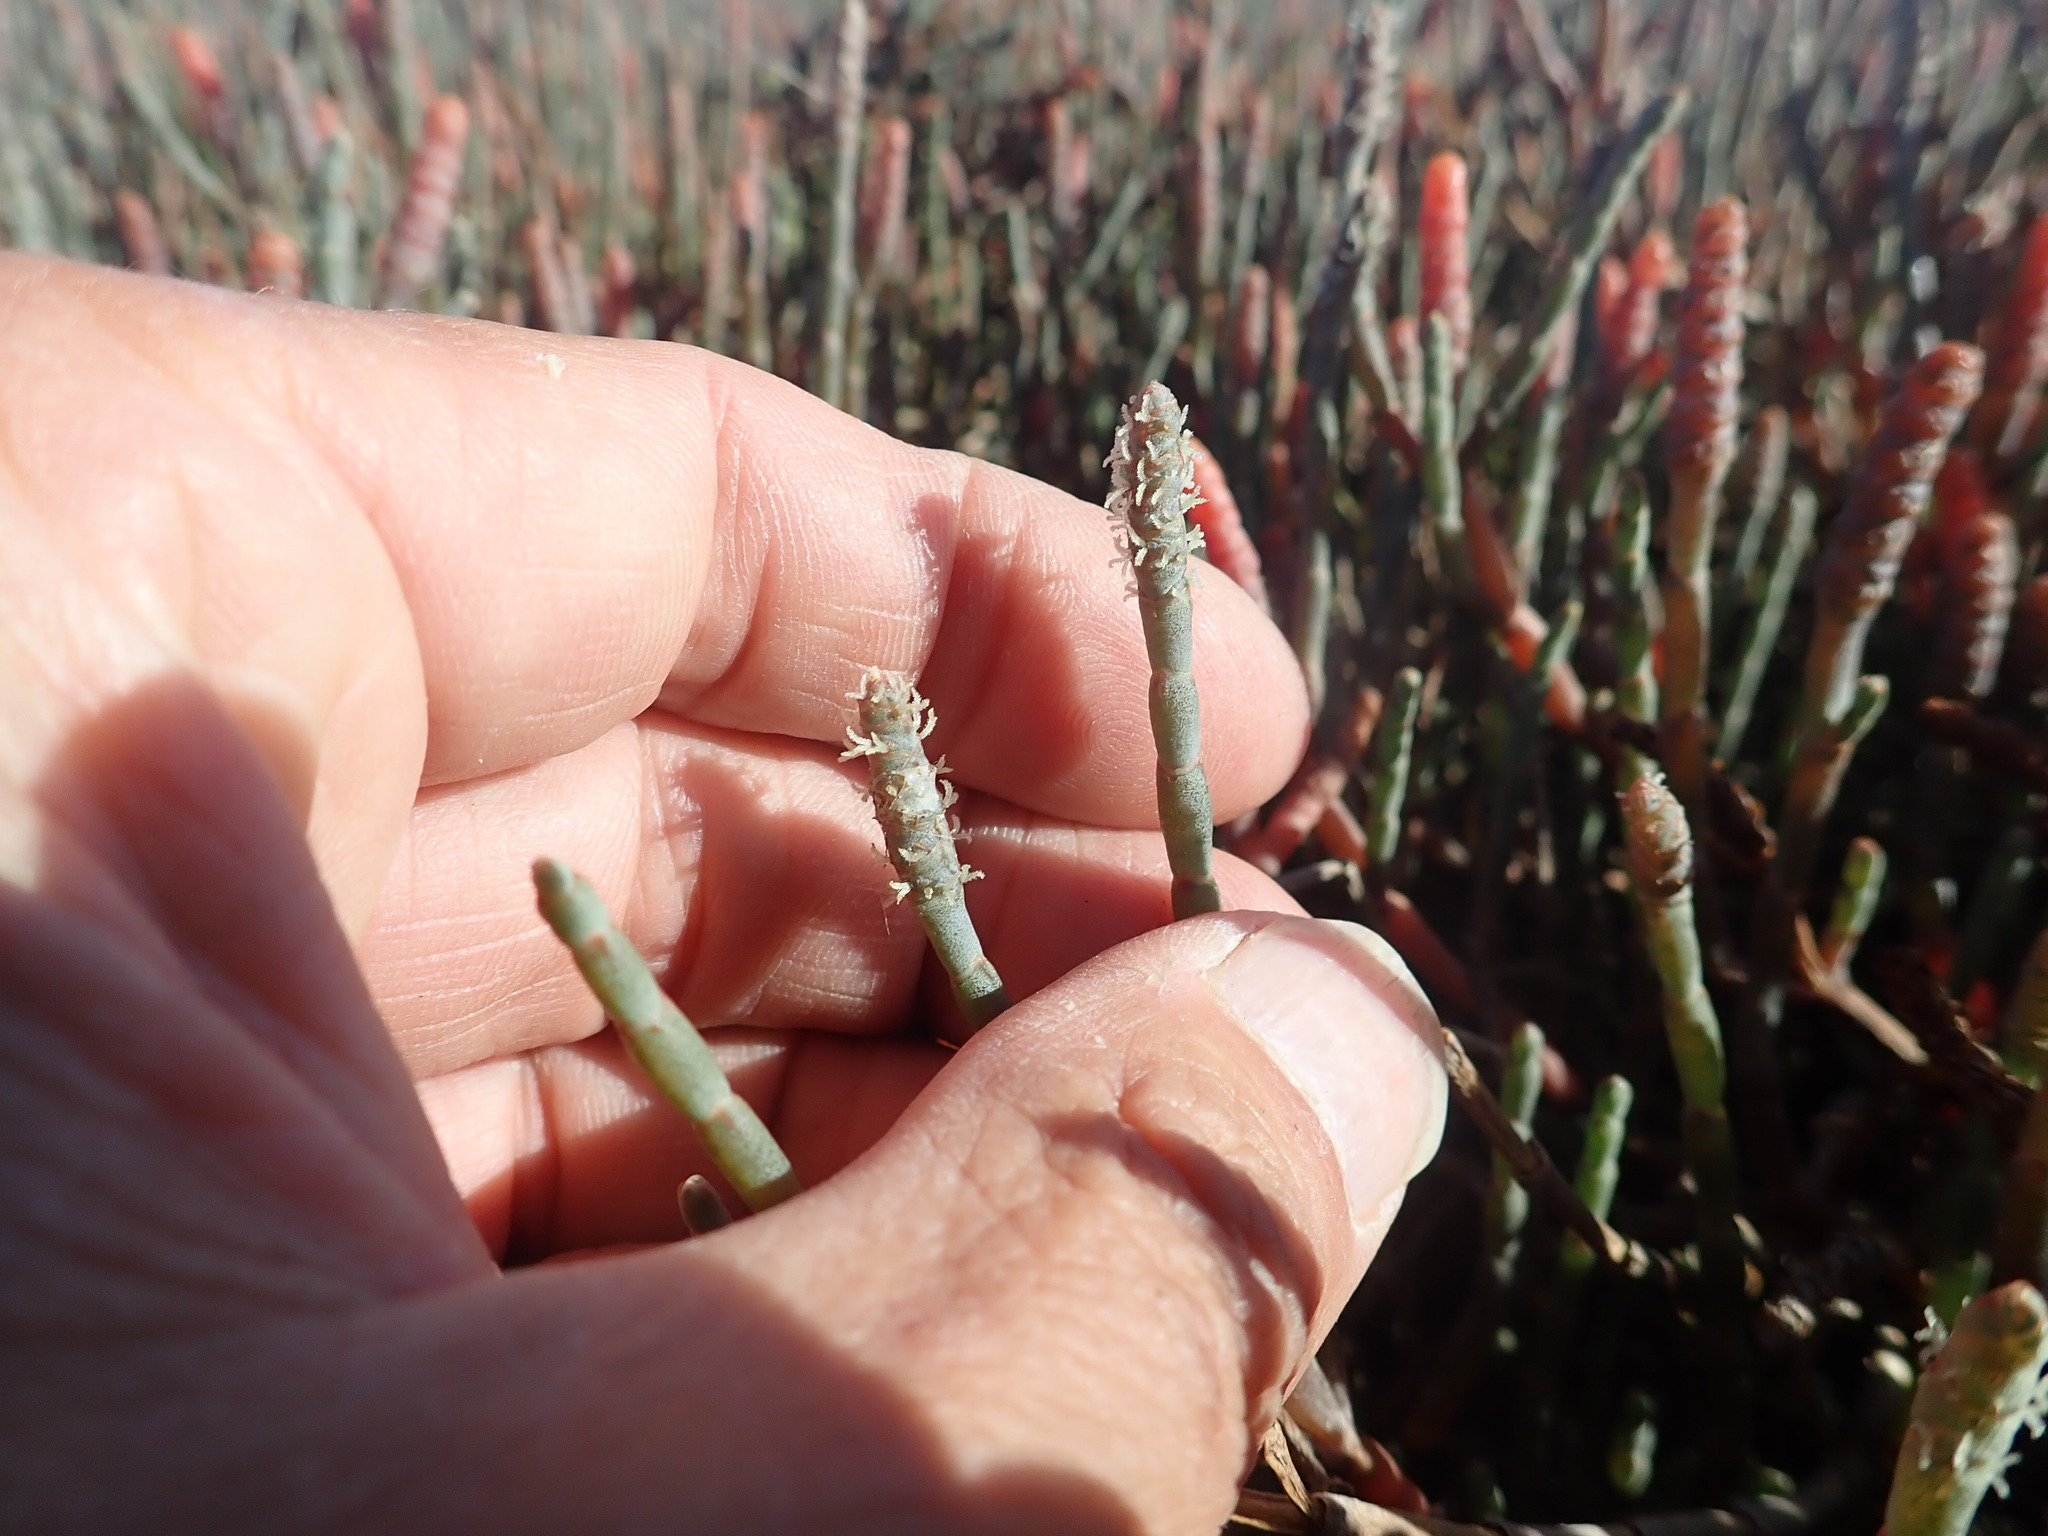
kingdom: Plantae
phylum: Tracheophyta
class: Magnoliopsida
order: Caryophyllales
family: Amaranthaceae
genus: Salicornia
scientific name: Salicornia quinqueflora
